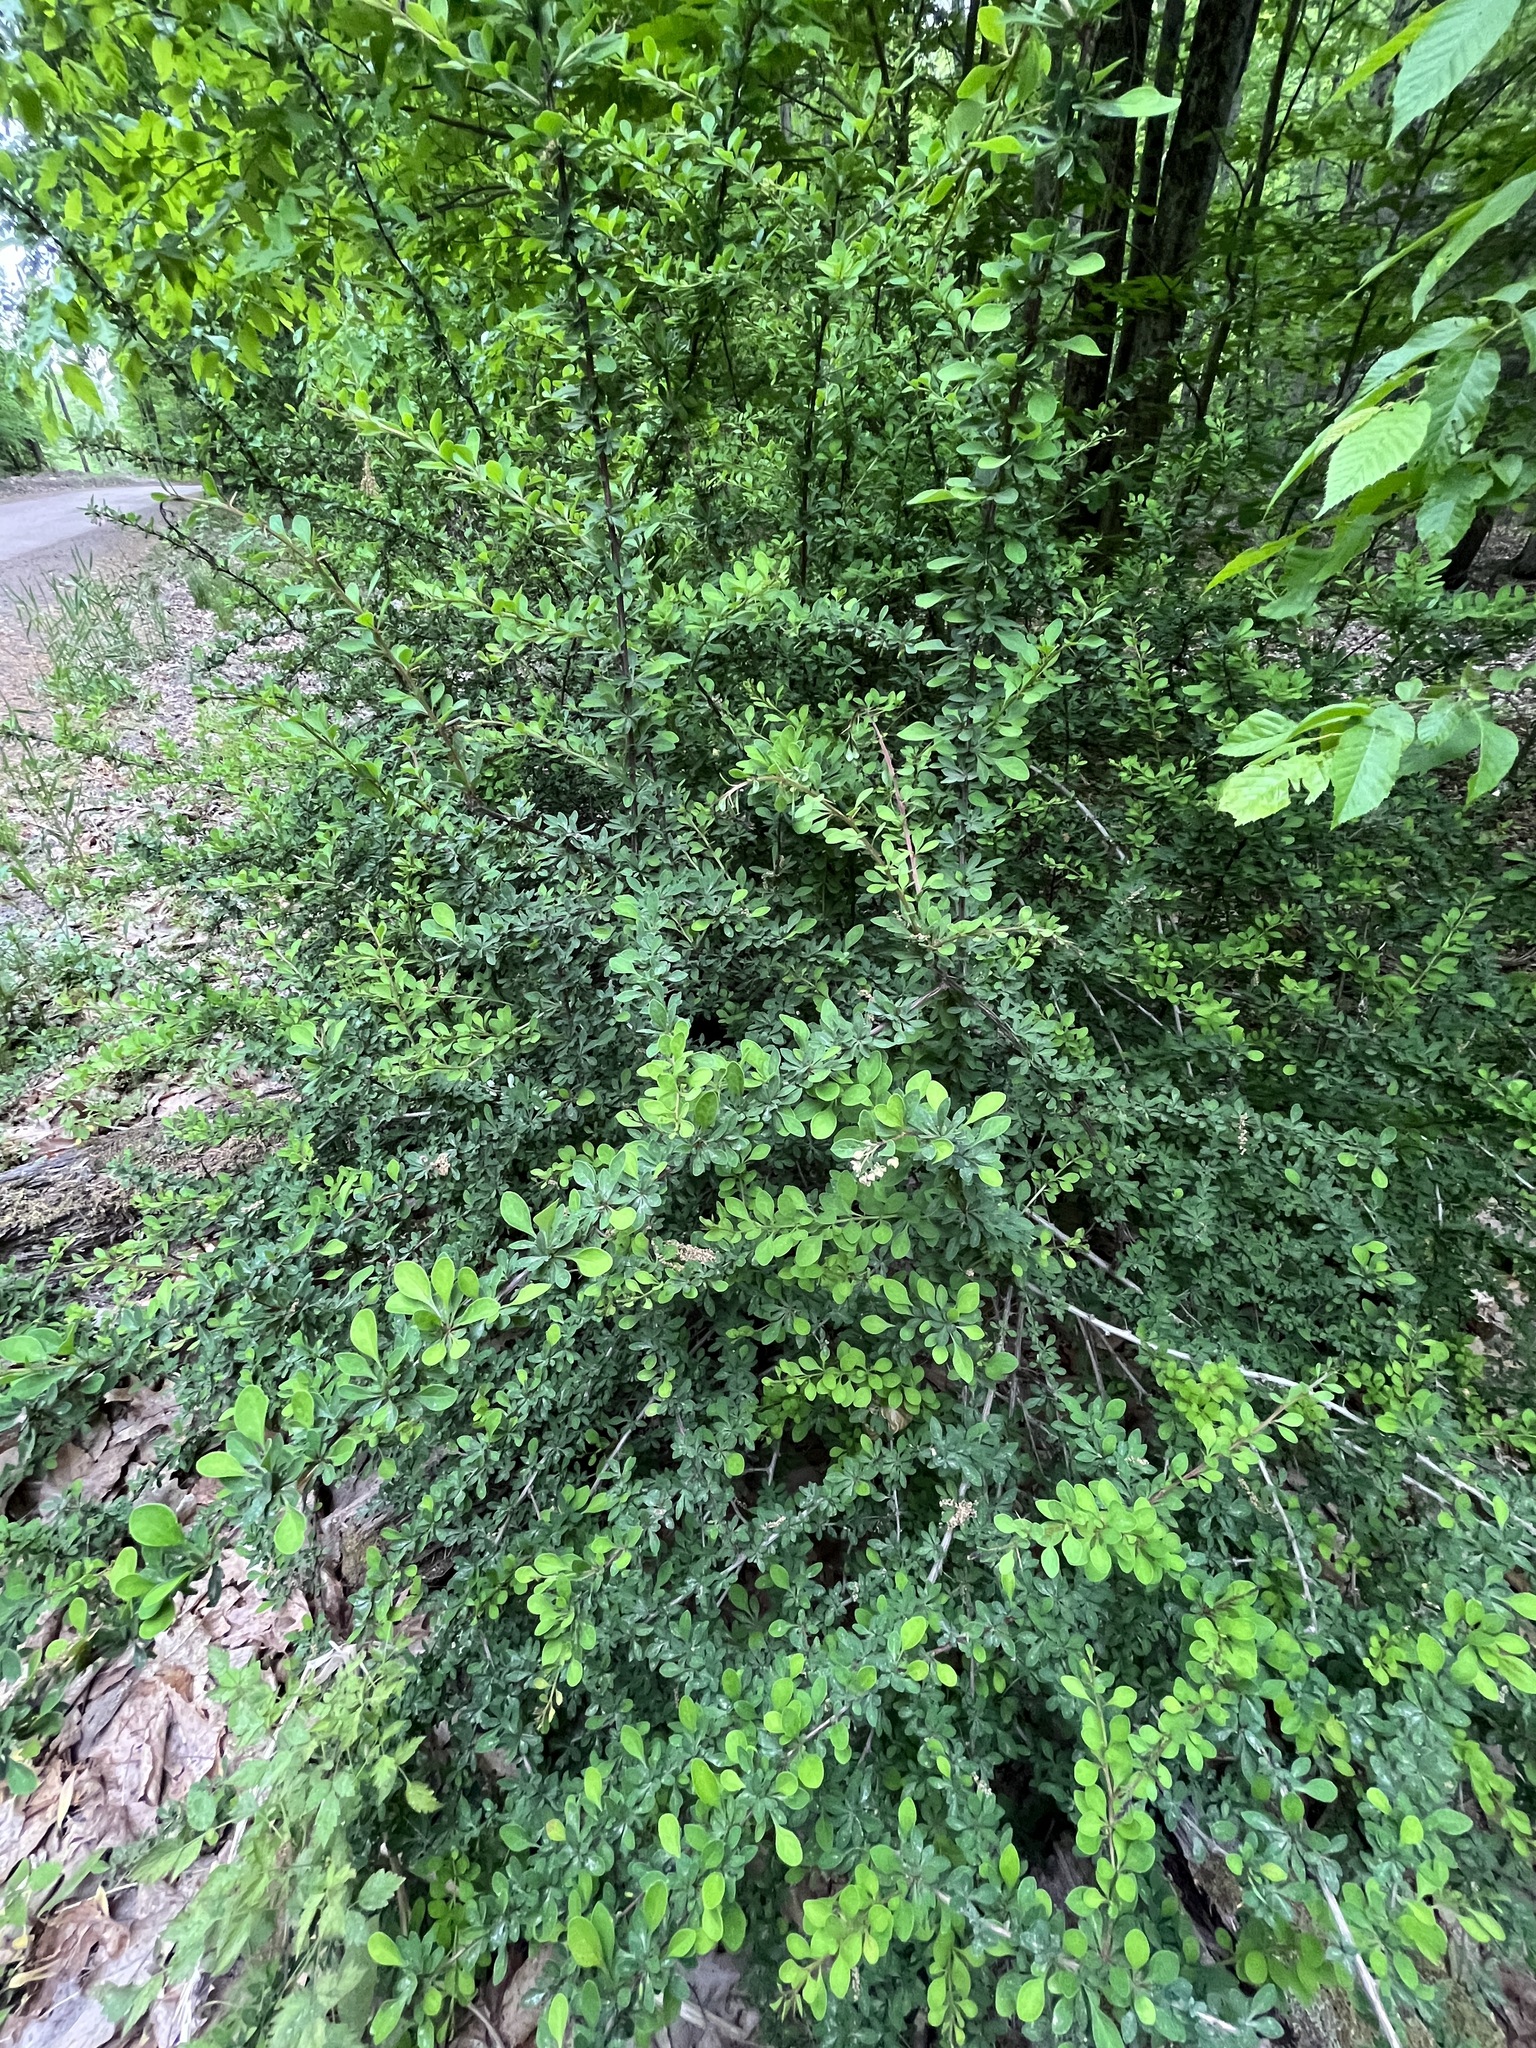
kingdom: Plantae
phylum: Tracheophyta
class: Magnoliopsida
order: Ranunculales
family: Berberidaceae
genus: Berberis
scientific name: Berberis thunbergii
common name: Japanese barberry
